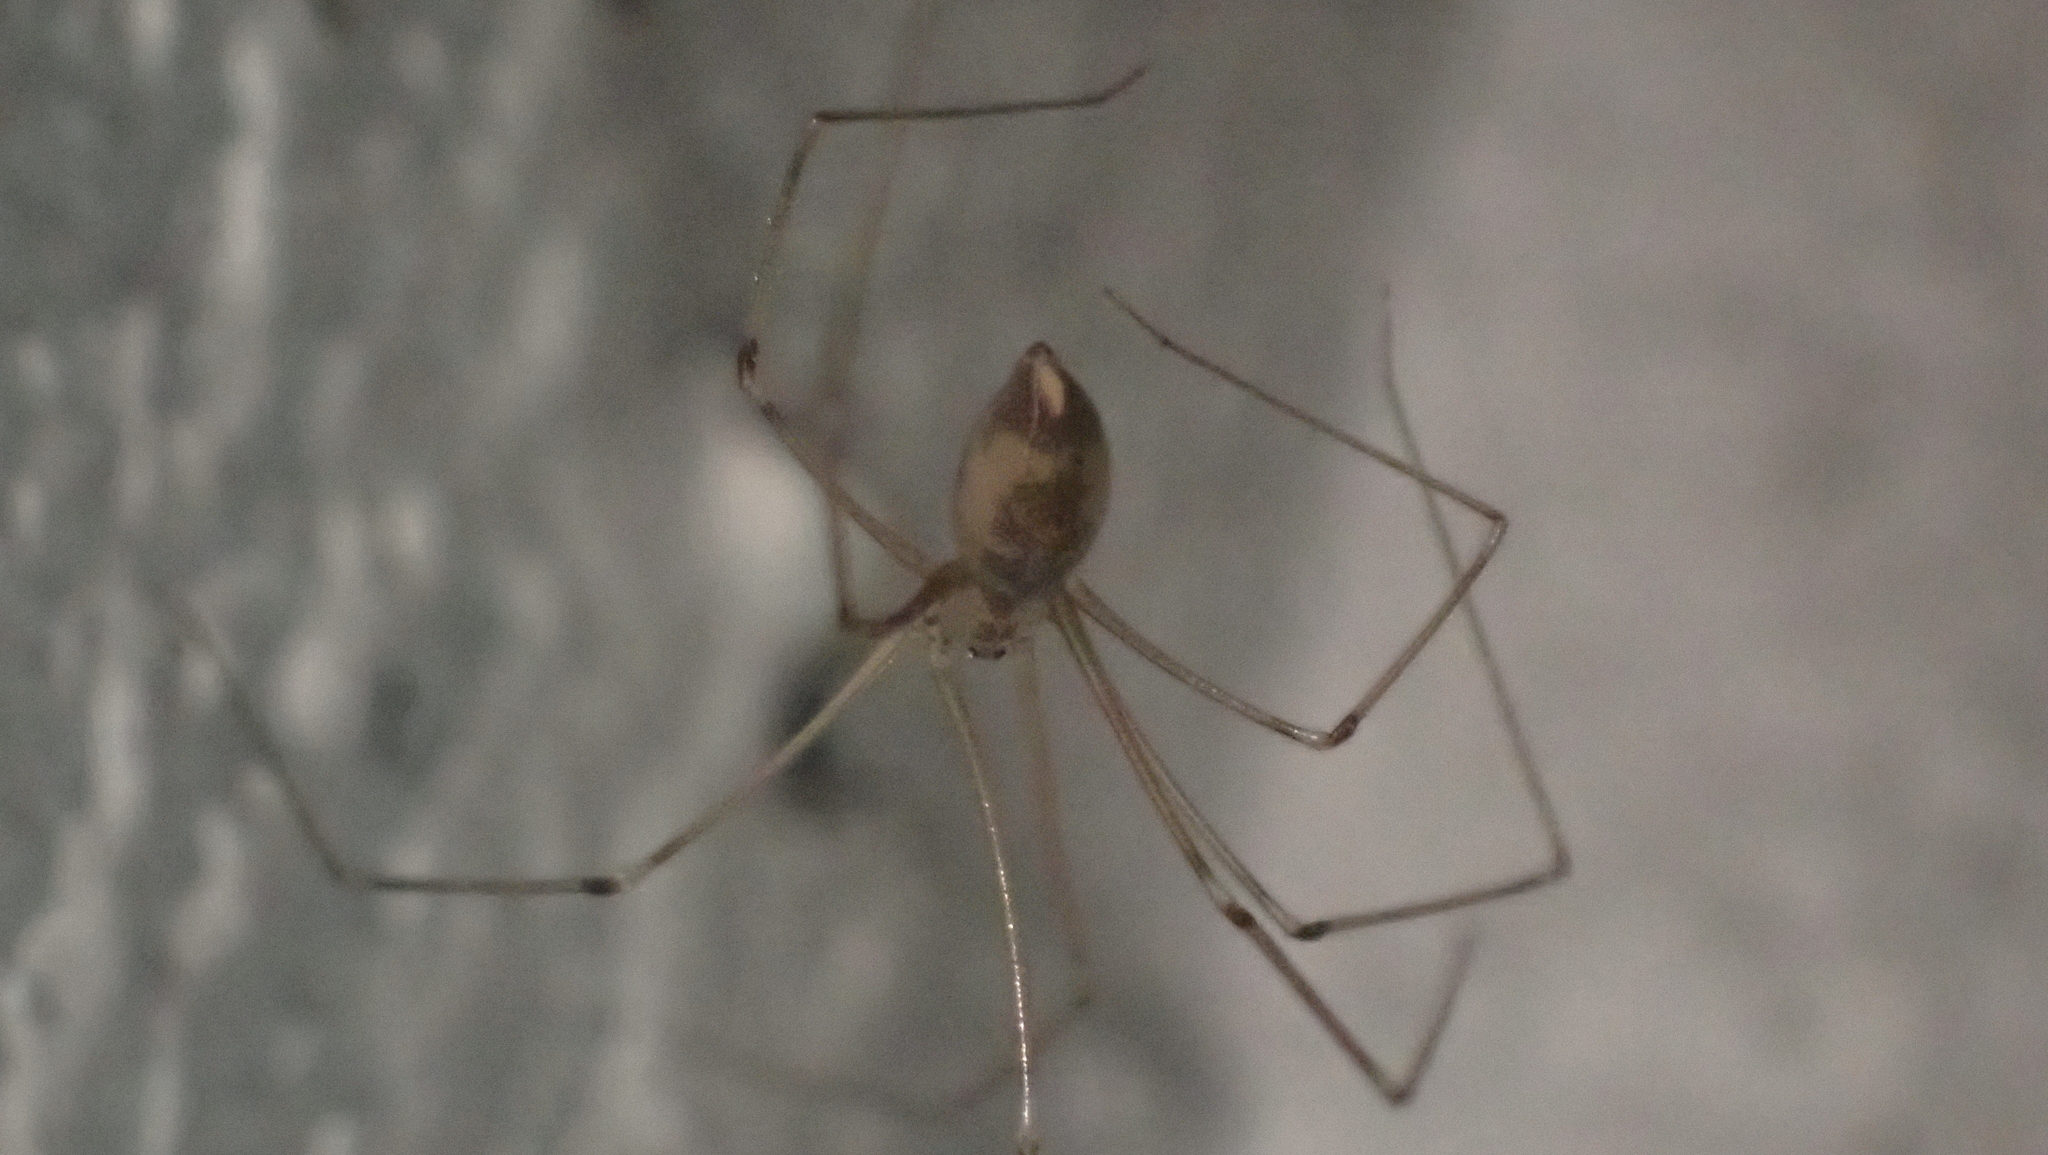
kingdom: Animalia
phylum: Arthropoda
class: Arachnida
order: Araneae
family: Pholcidae
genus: Pholcus
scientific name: Pholcus phalangioides
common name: Longbodied cellar spider
